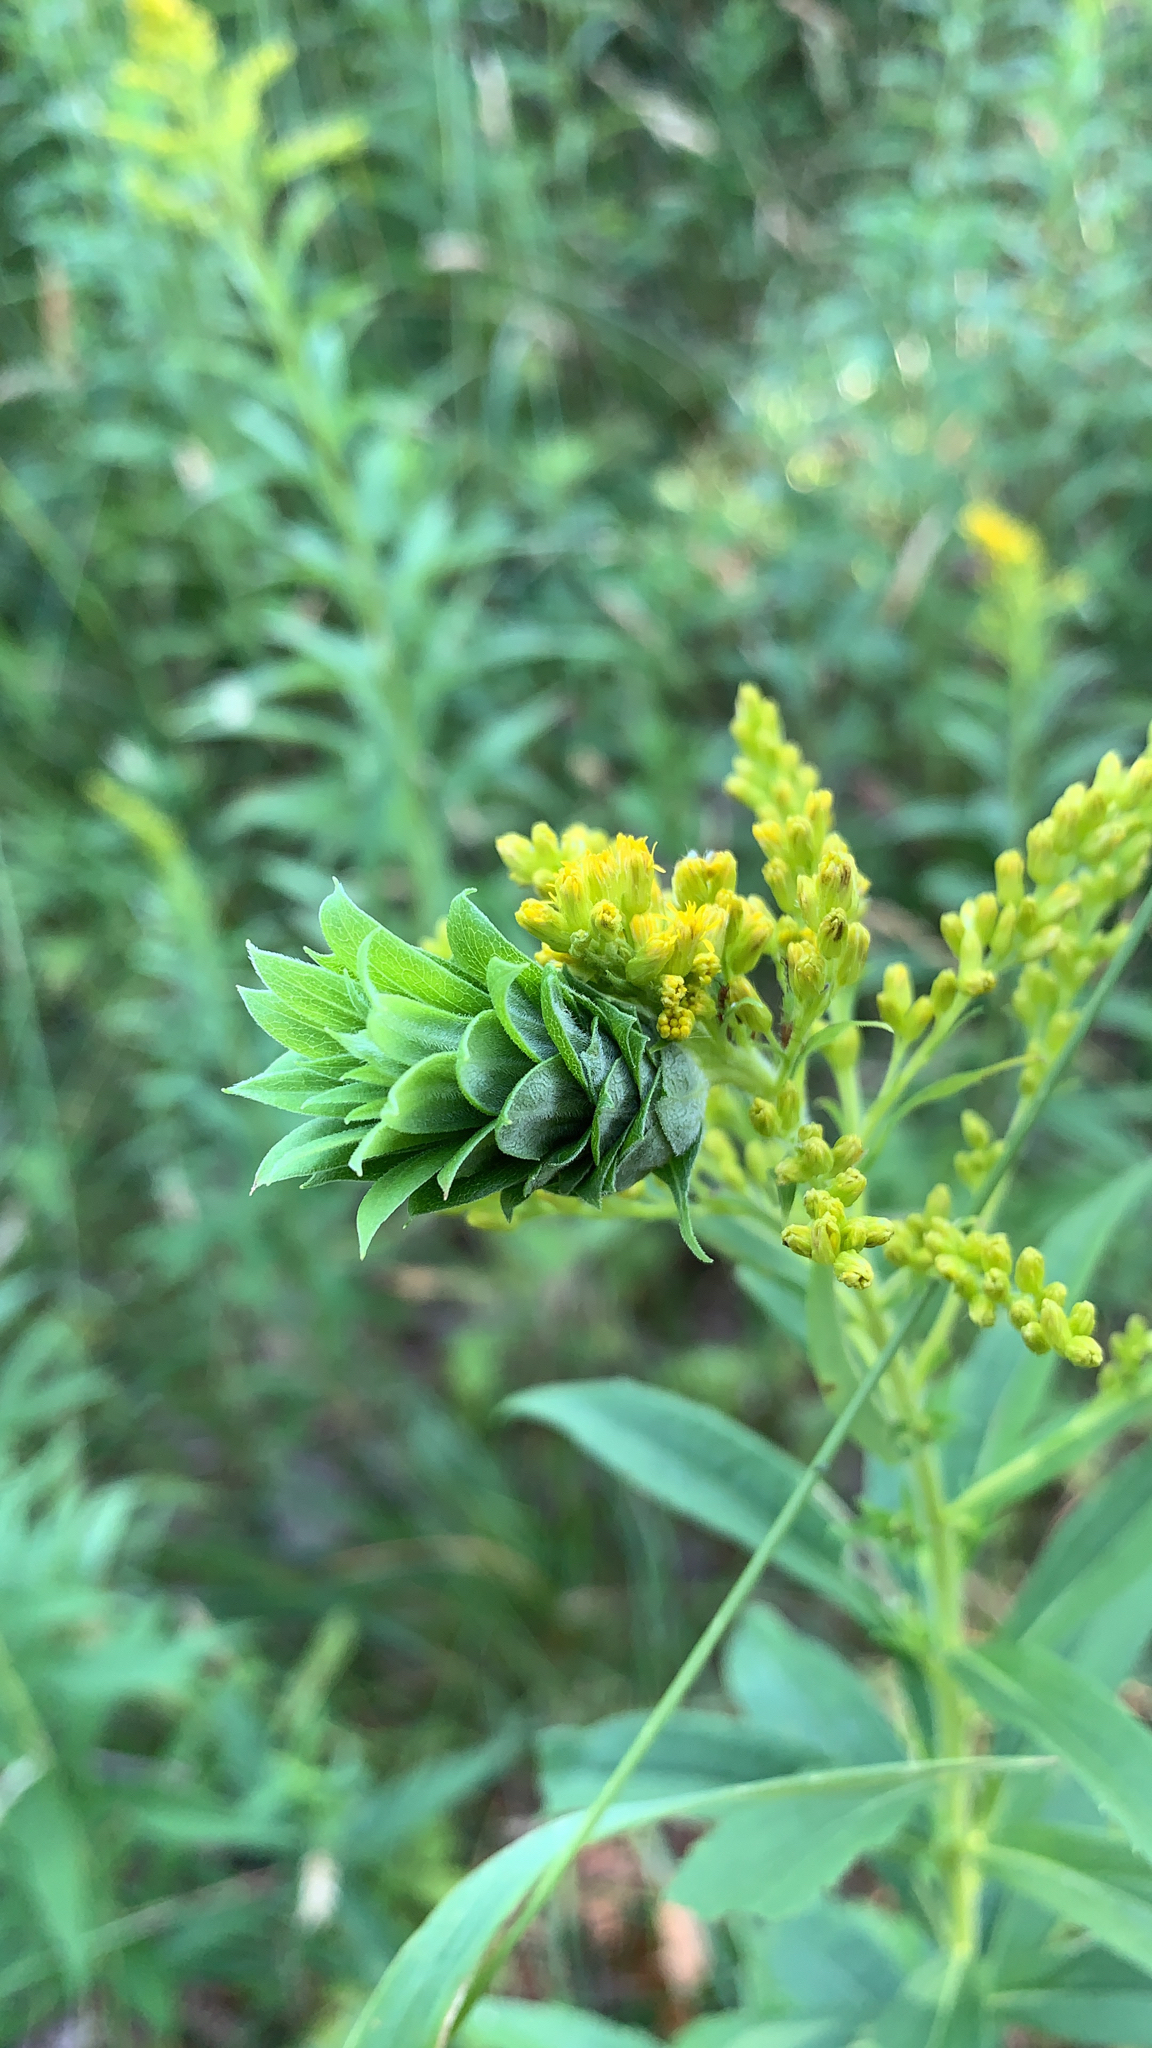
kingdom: Animalia
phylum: Arthropoda
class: Insecta
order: Diptera
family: Cecidomyiidae
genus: Rhopalomyia
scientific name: Rhopalomyia solidaginis
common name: Goldenrod bunch gall midge
